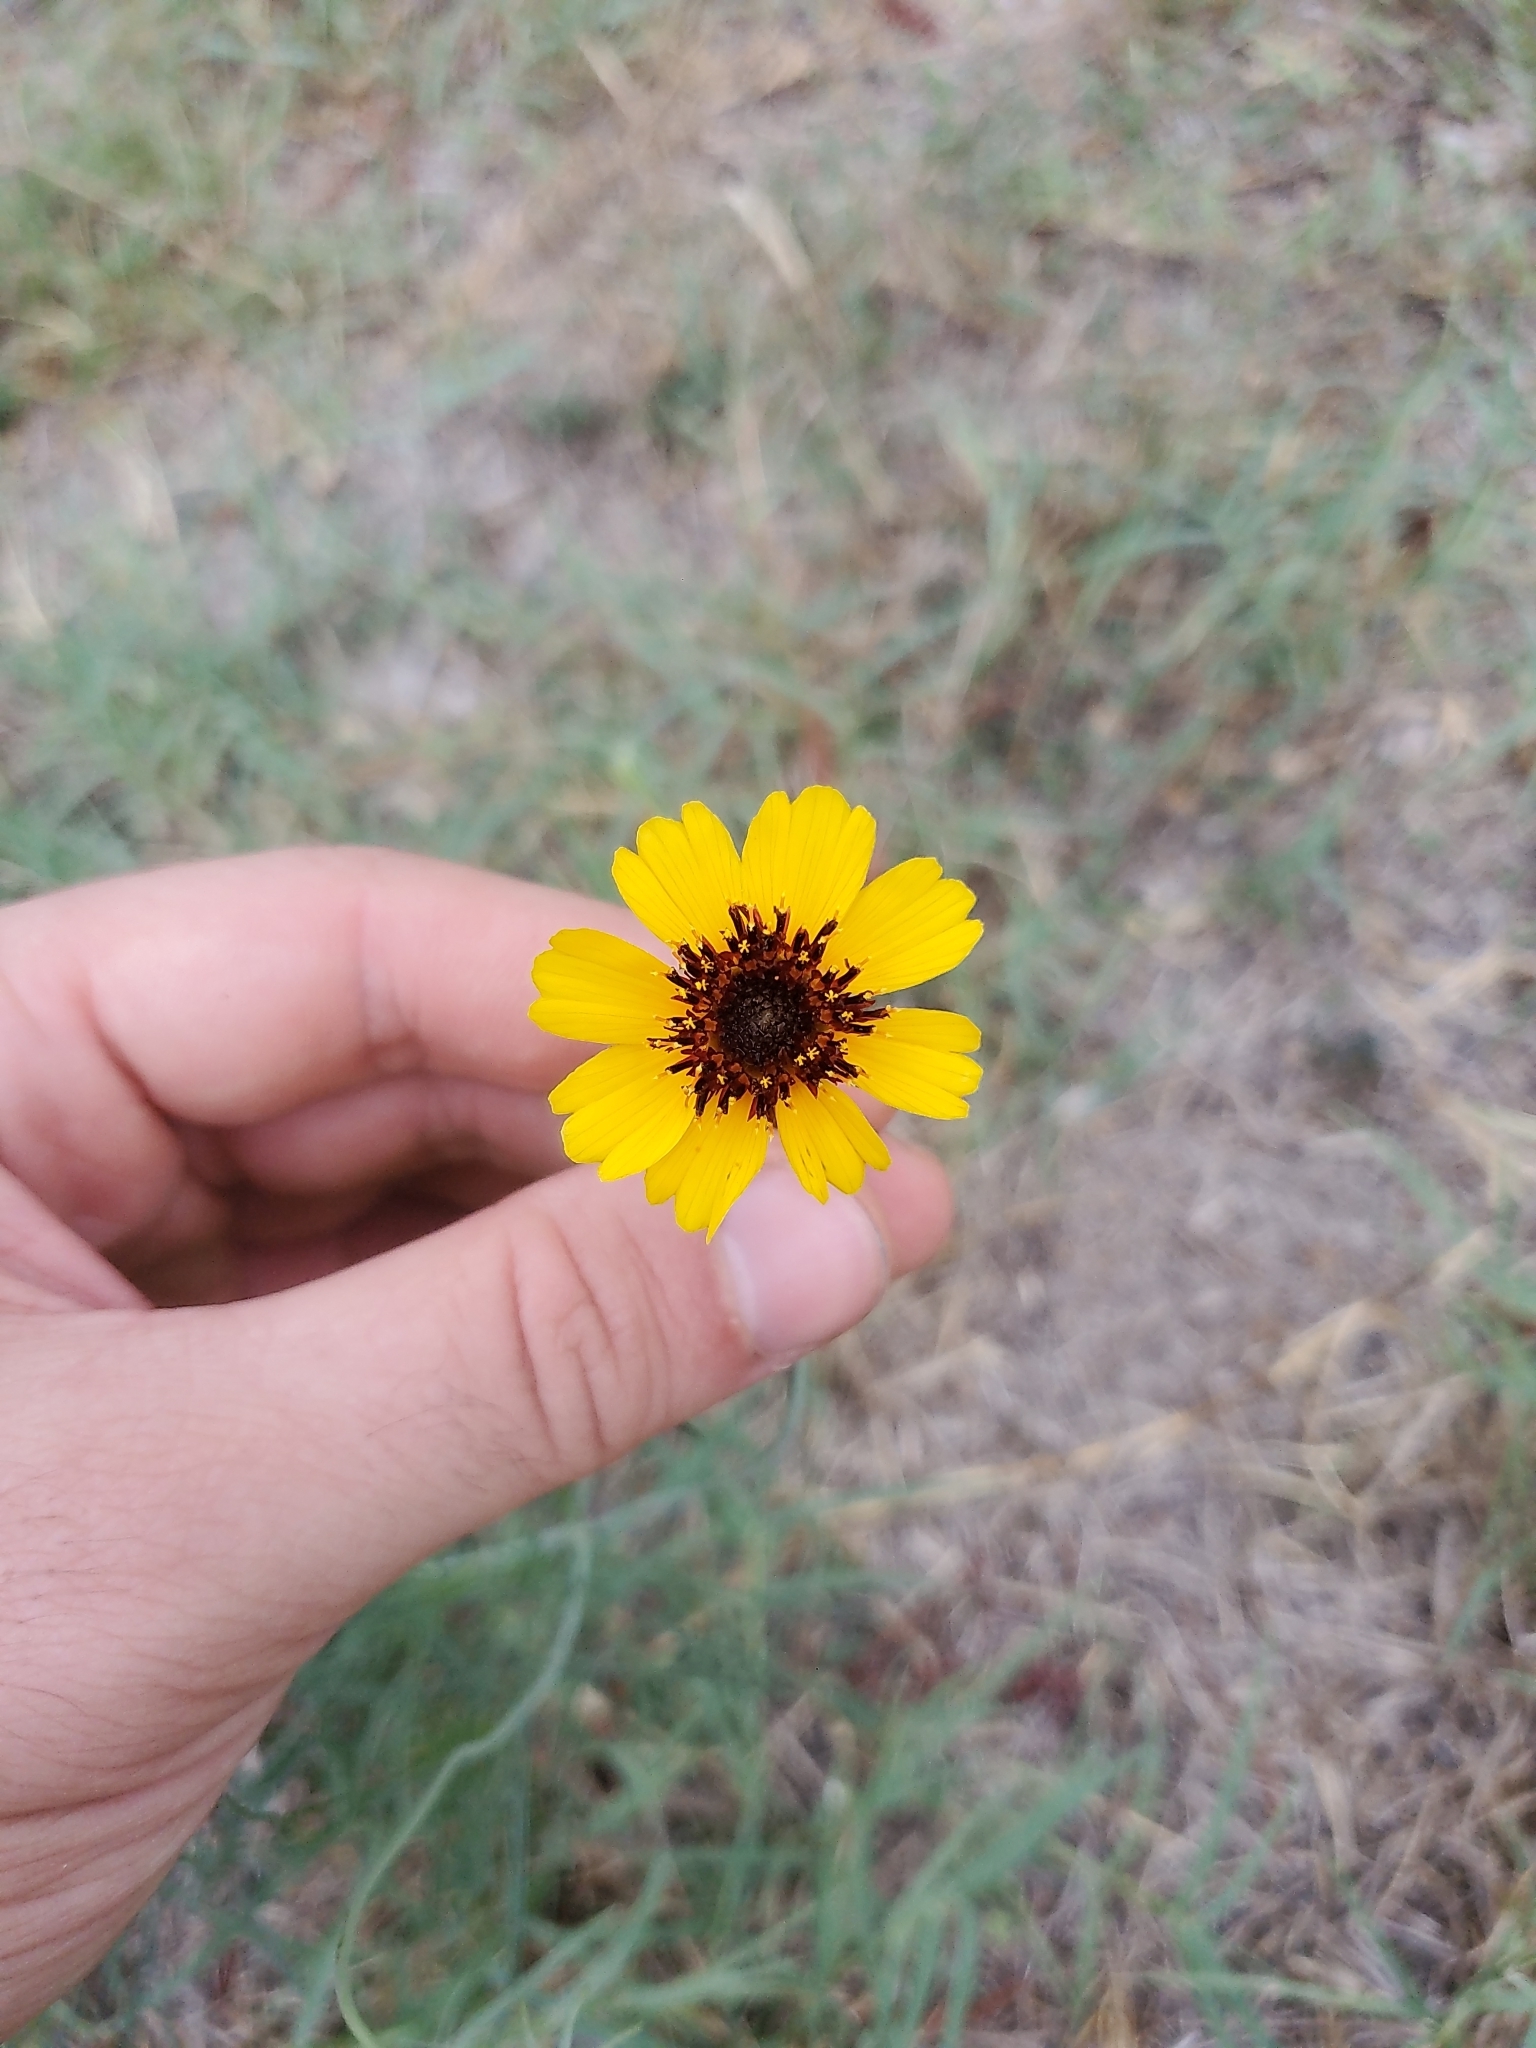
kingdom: Plantae
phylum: Tracheophyta
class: Magnoliopsida
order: Asterales
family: Asteraceae
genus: Thelesperma
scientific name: Thelesperma filifolium
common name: Stiff greenthread
